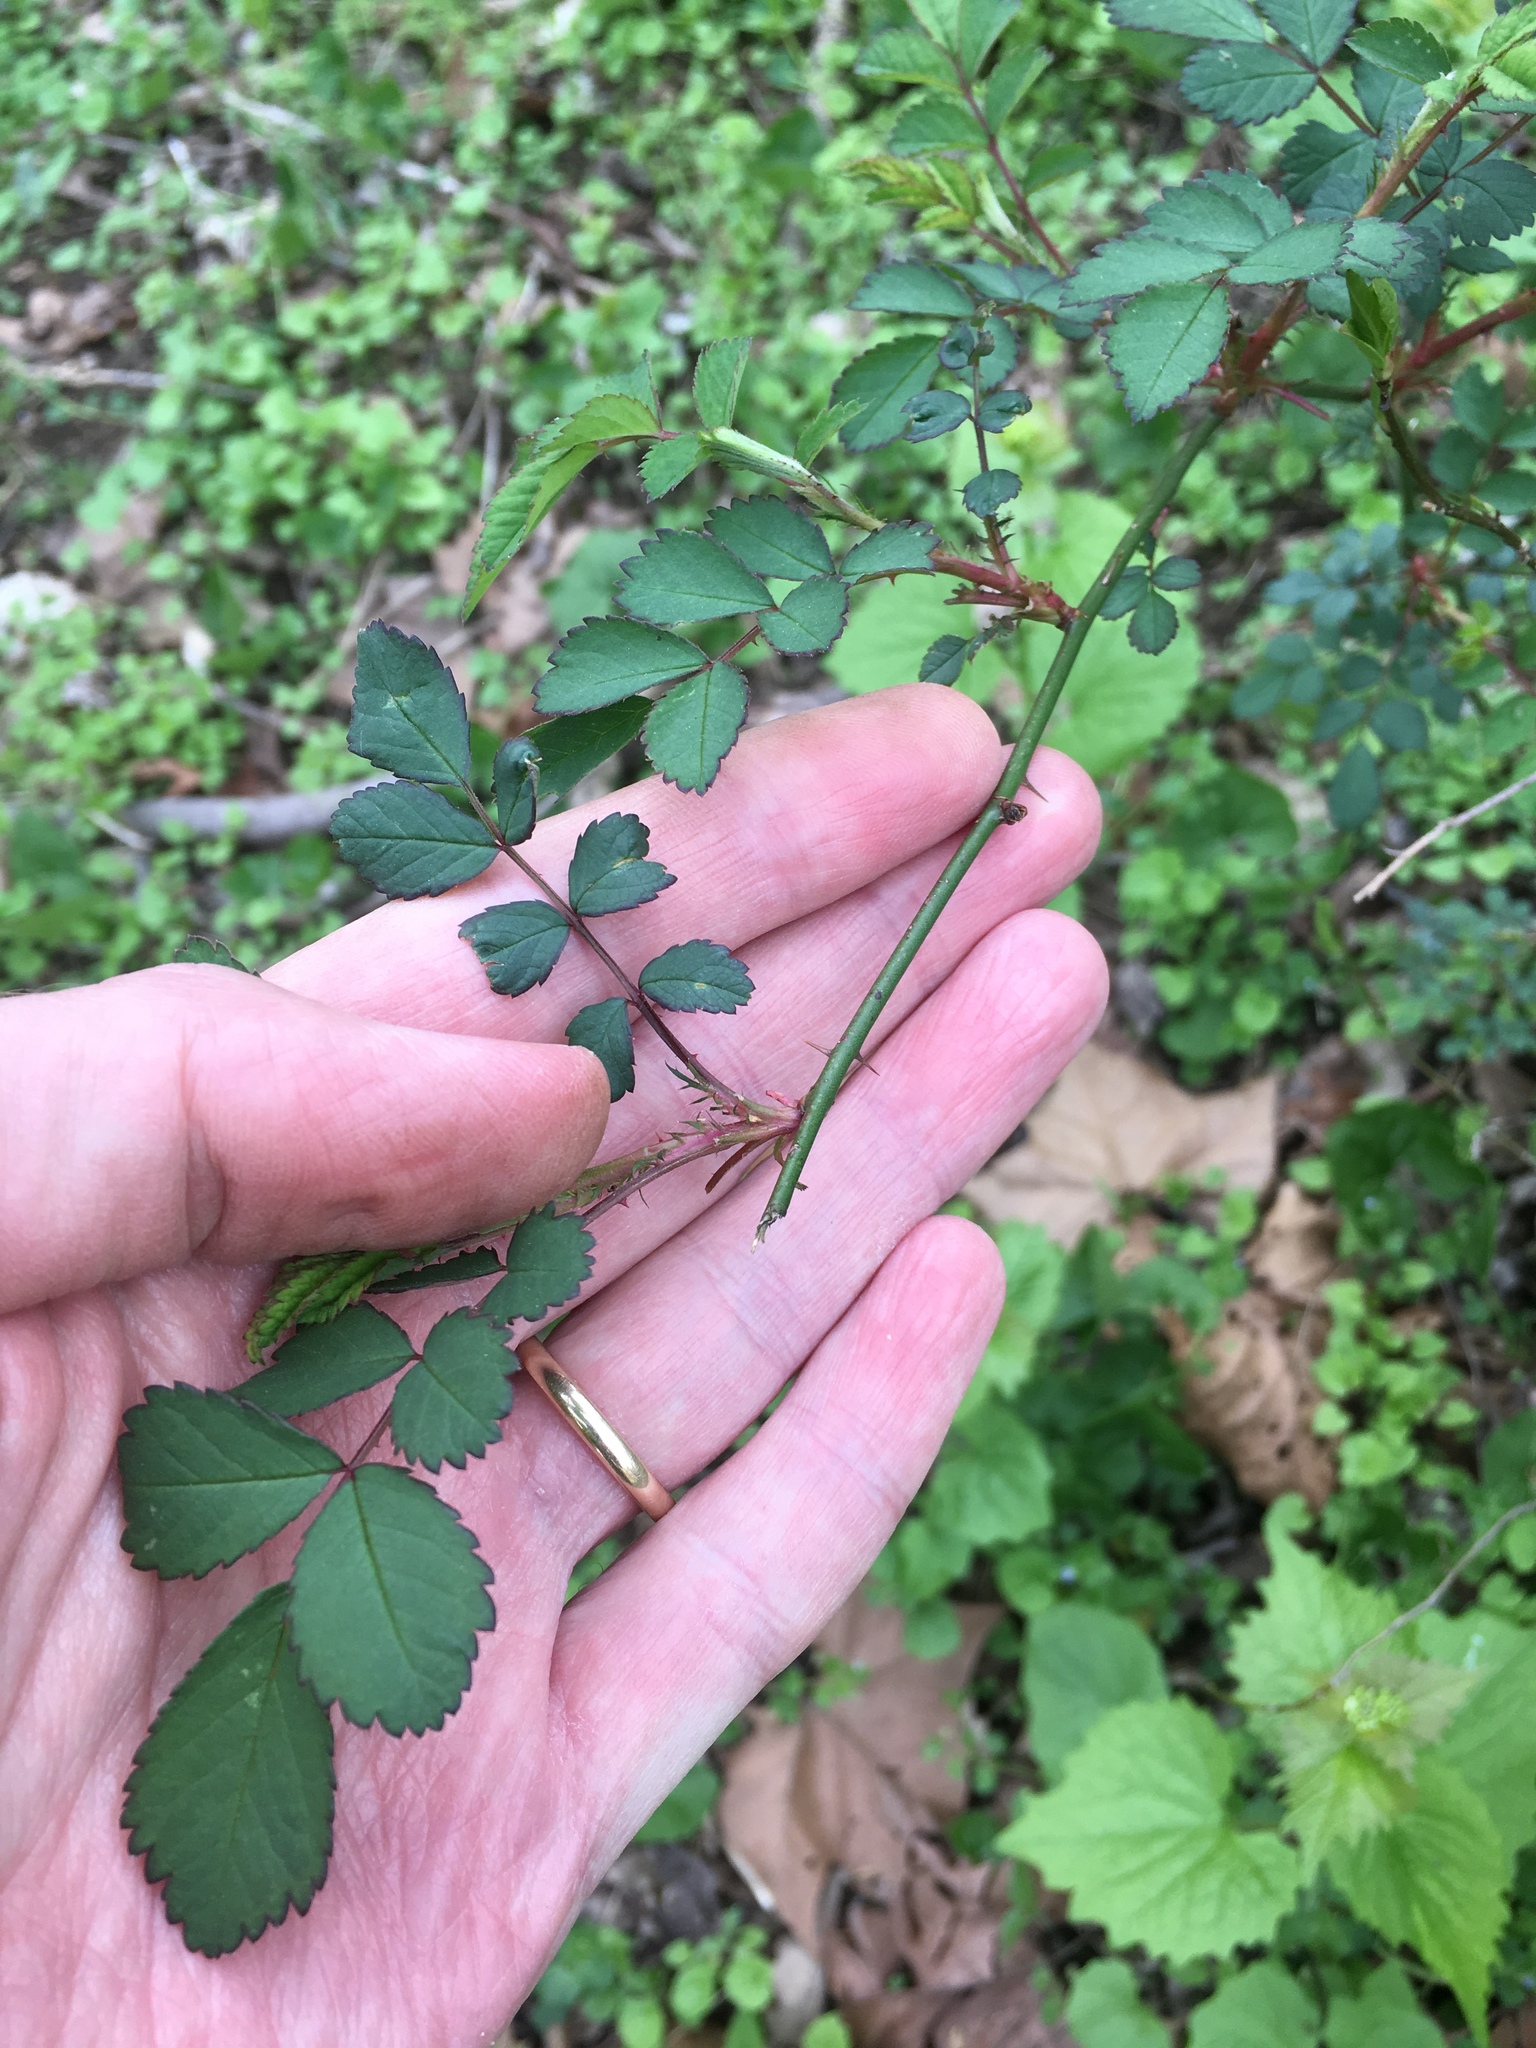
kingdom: Plantae
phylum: Tracheophyta
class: Magnoliopsida
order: Rosales
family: Rosaceae
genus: Rosa
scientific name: Rosa multiflora
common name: Multiflora rose
